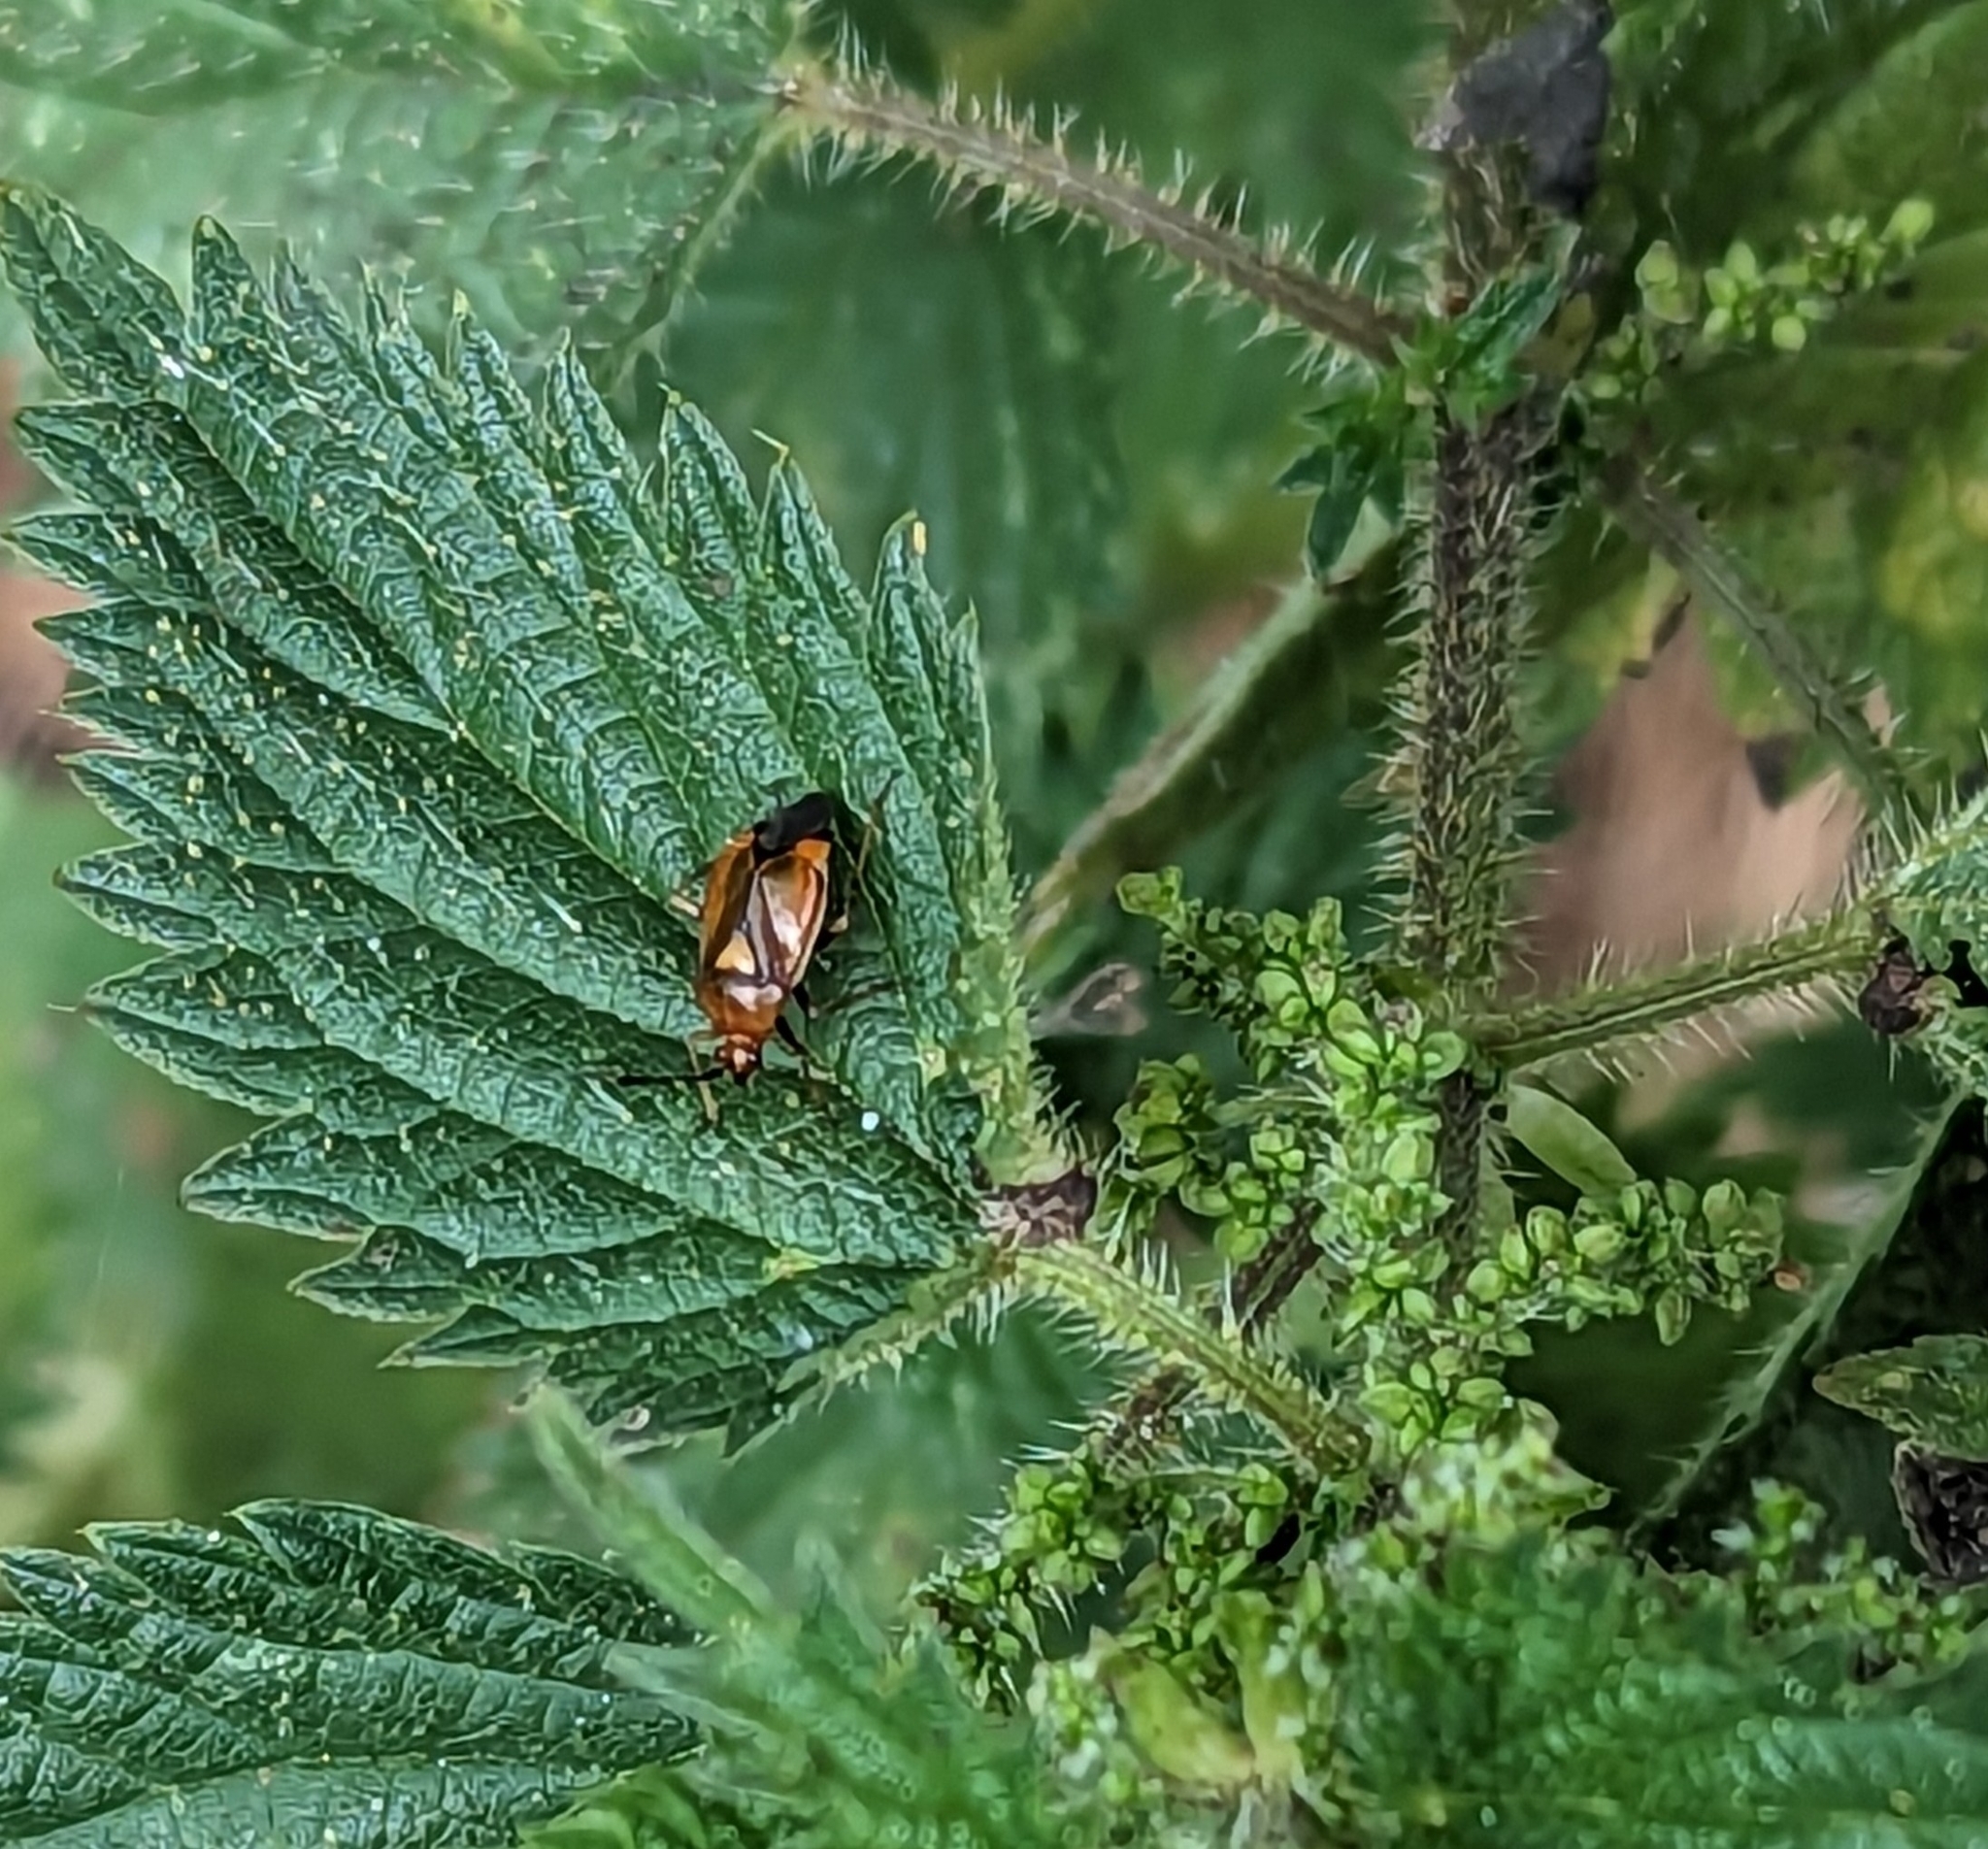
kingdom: Animalia
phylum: Arthropoda
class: Insecta
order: Hemiptera
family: Miridae
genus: Deraeocoris
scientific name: Deraeocoris ruber
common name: Plant bug
